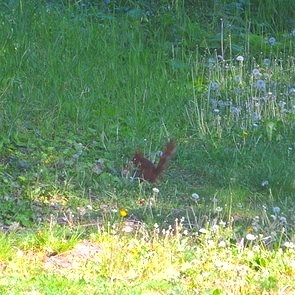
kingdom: Animalia
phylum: Chordata
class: Mammalia
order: Rodentia
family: Sciuridae
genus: Sciurus
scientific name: Sciurus vulgaris
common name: Eurasian red squirrel
